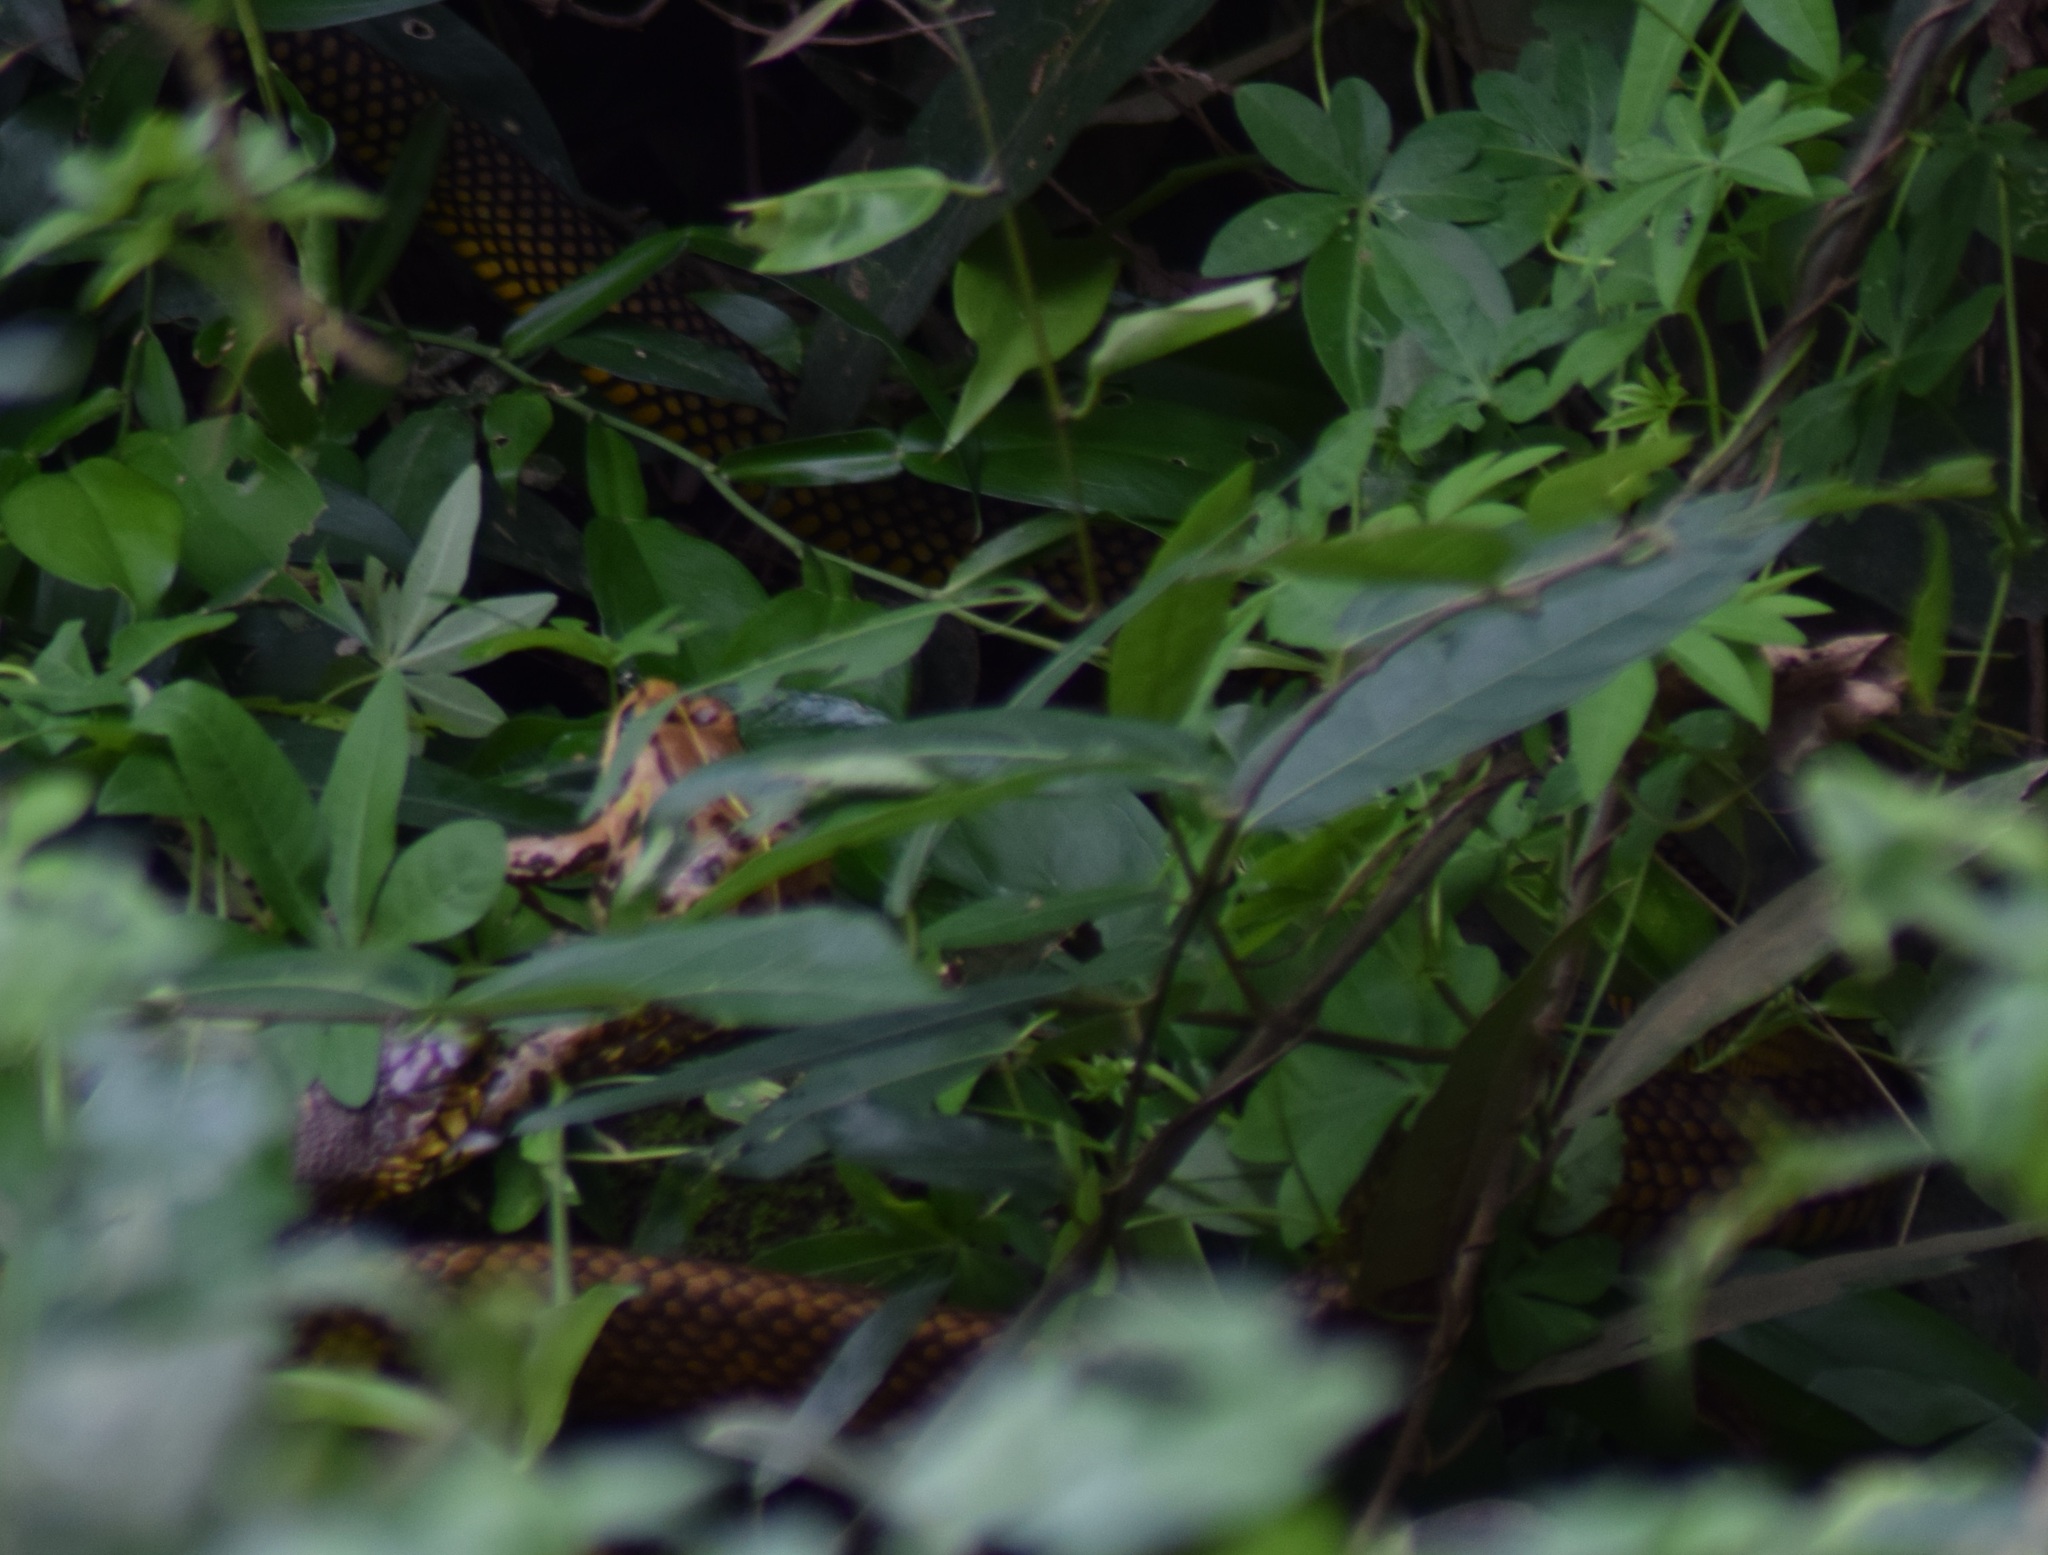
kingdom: Animalia
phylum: Chordata
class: Amphibia
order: Anura
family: Dicroglossidae
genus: Hoplobatrachus
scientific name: Hoplobatrachus tigerinus
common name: Indian bullfrog
